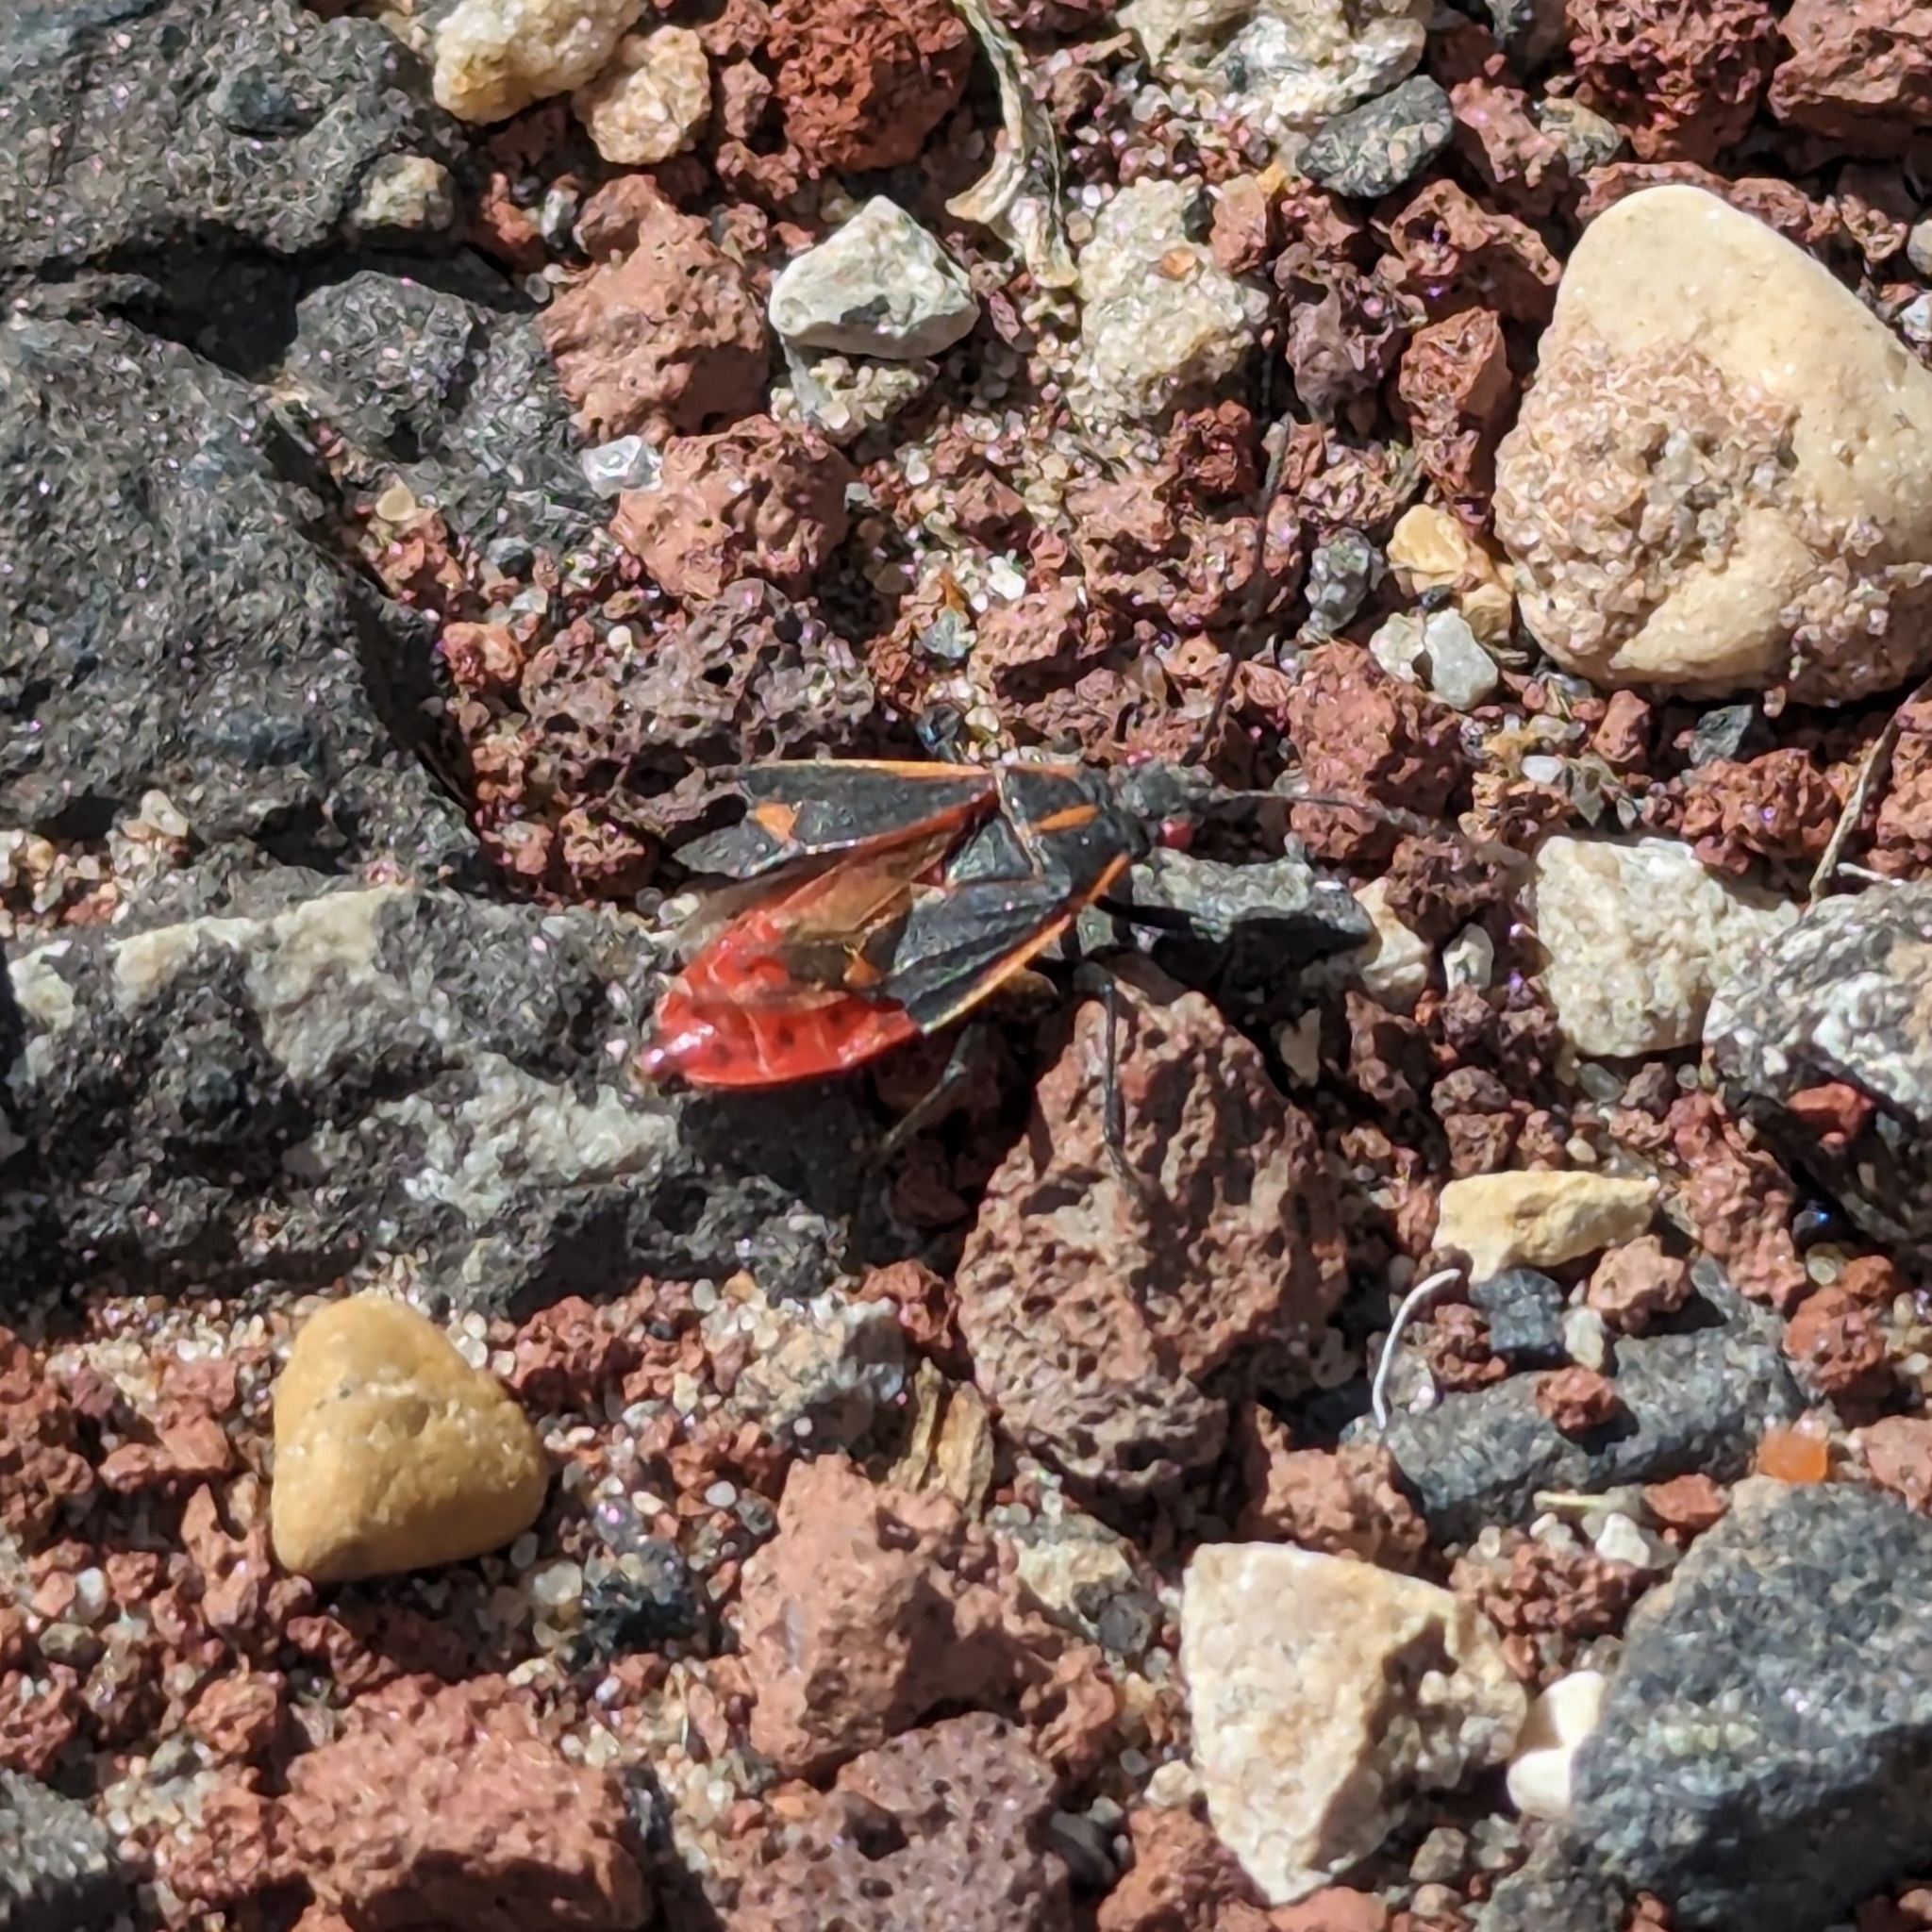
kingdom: Animalia
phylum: Arthropoda
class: Insecta
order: Hemiptera
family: Rhopalidae
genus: Boisea
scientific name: Boisea trivittata
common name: Boxelder bug
